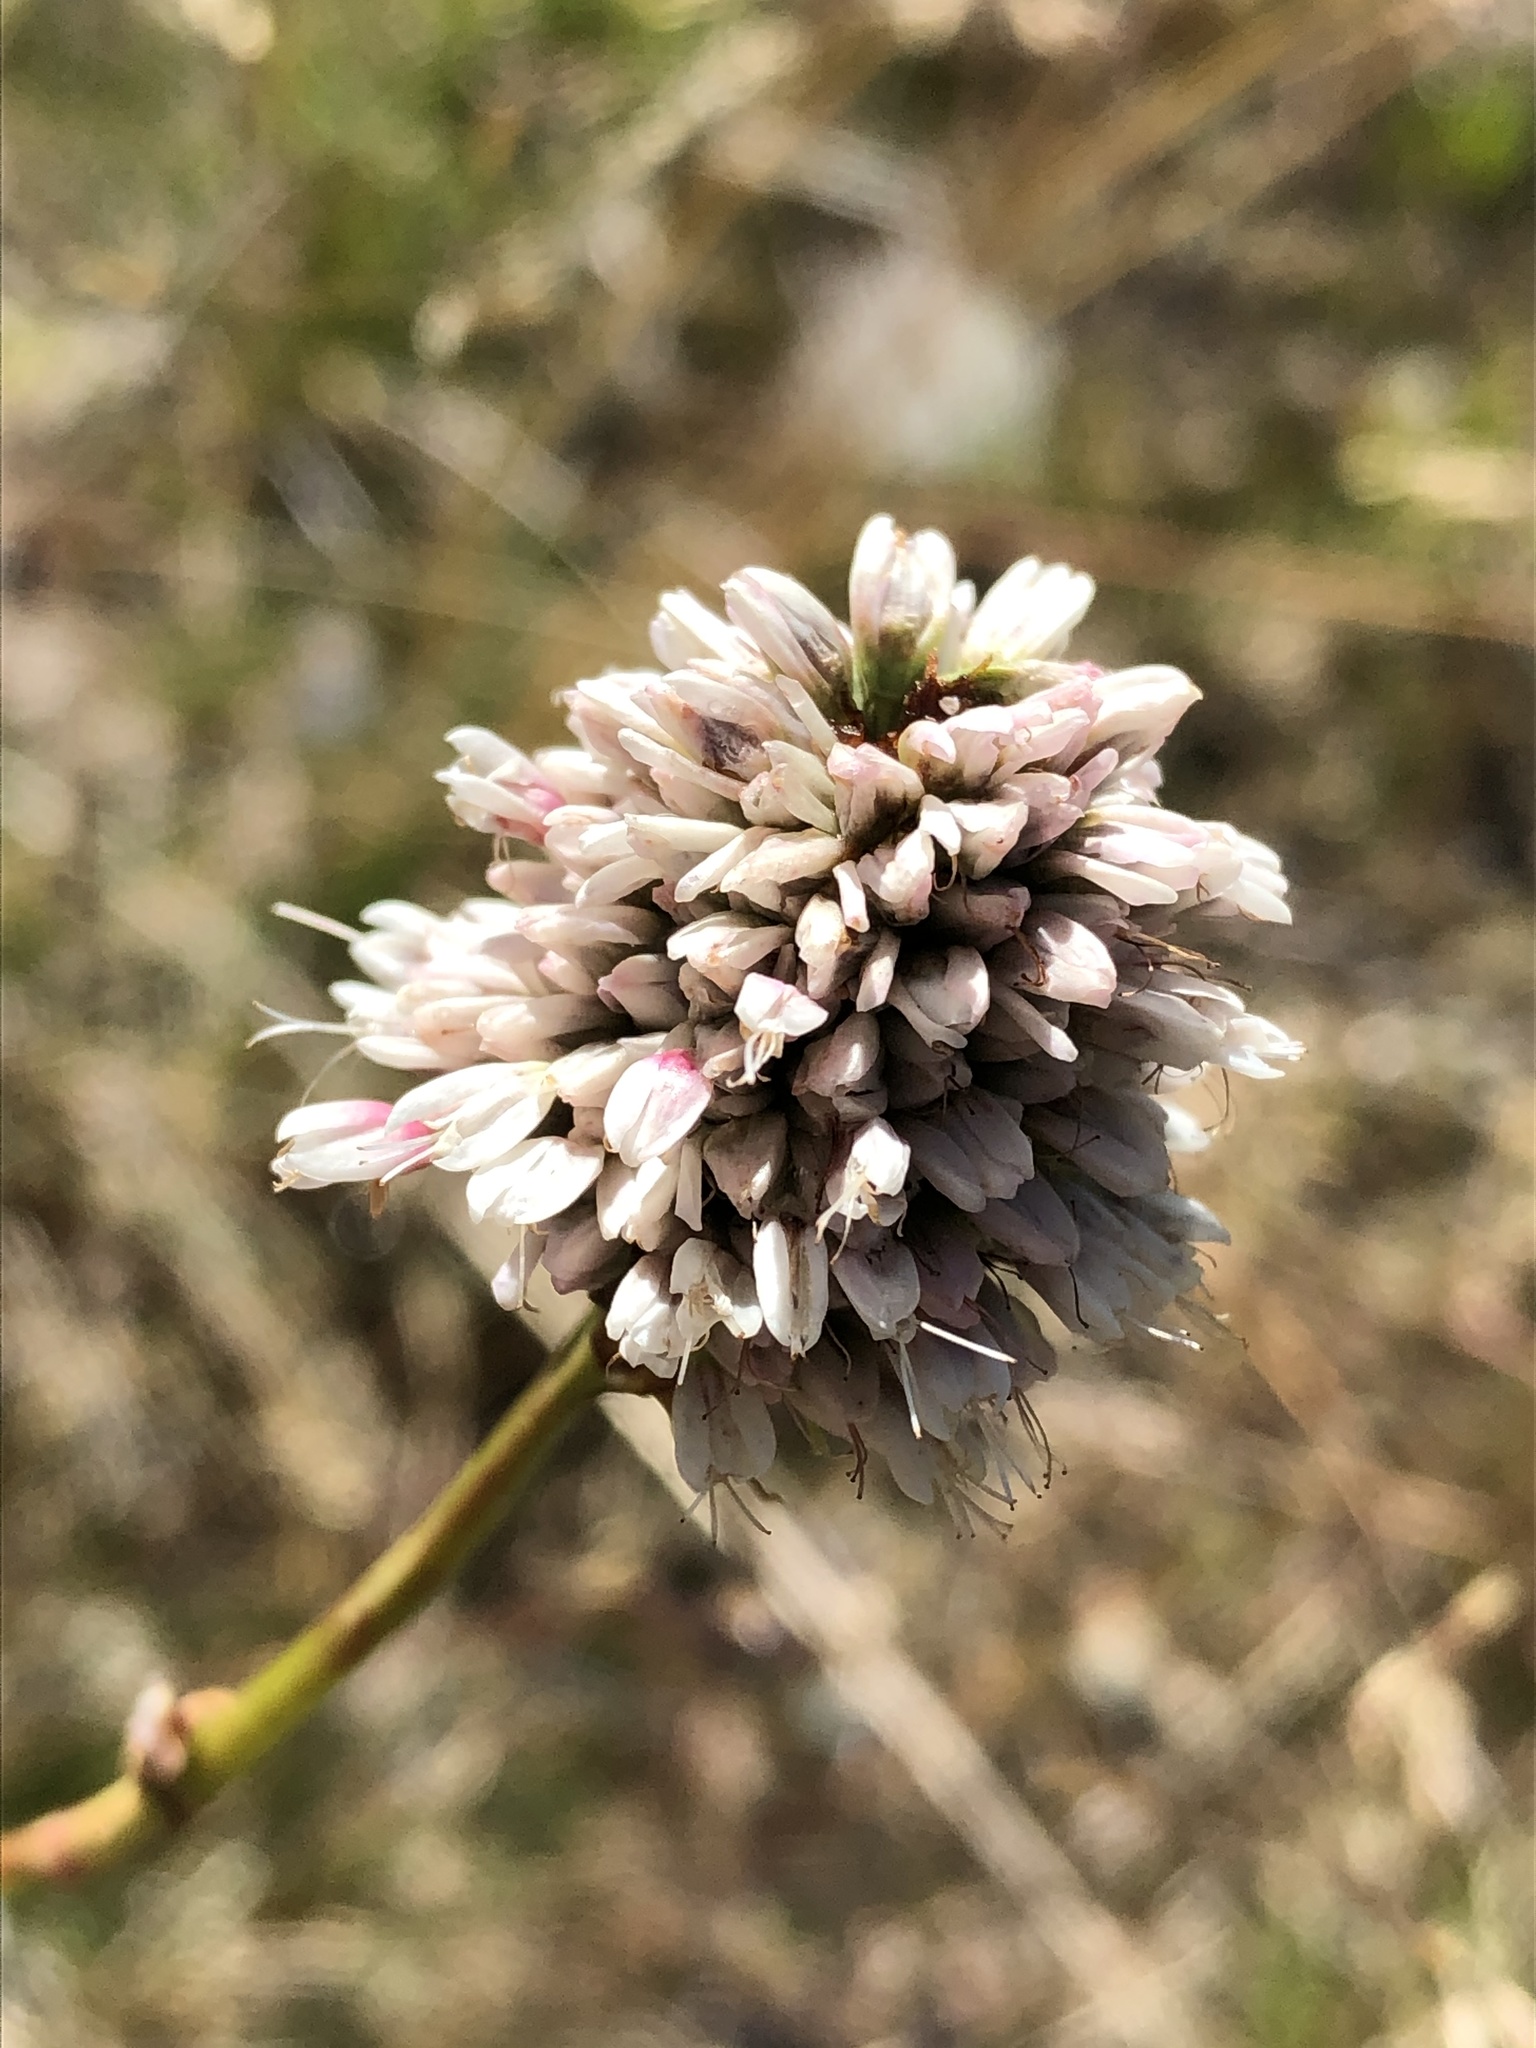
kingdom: Plantae
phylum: Tracheophyta
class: Magnoliopsida
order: Caryophyllales
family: Polygonaceae
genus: Bistorta
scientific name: Bistorta bistortoides
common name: American bistort
